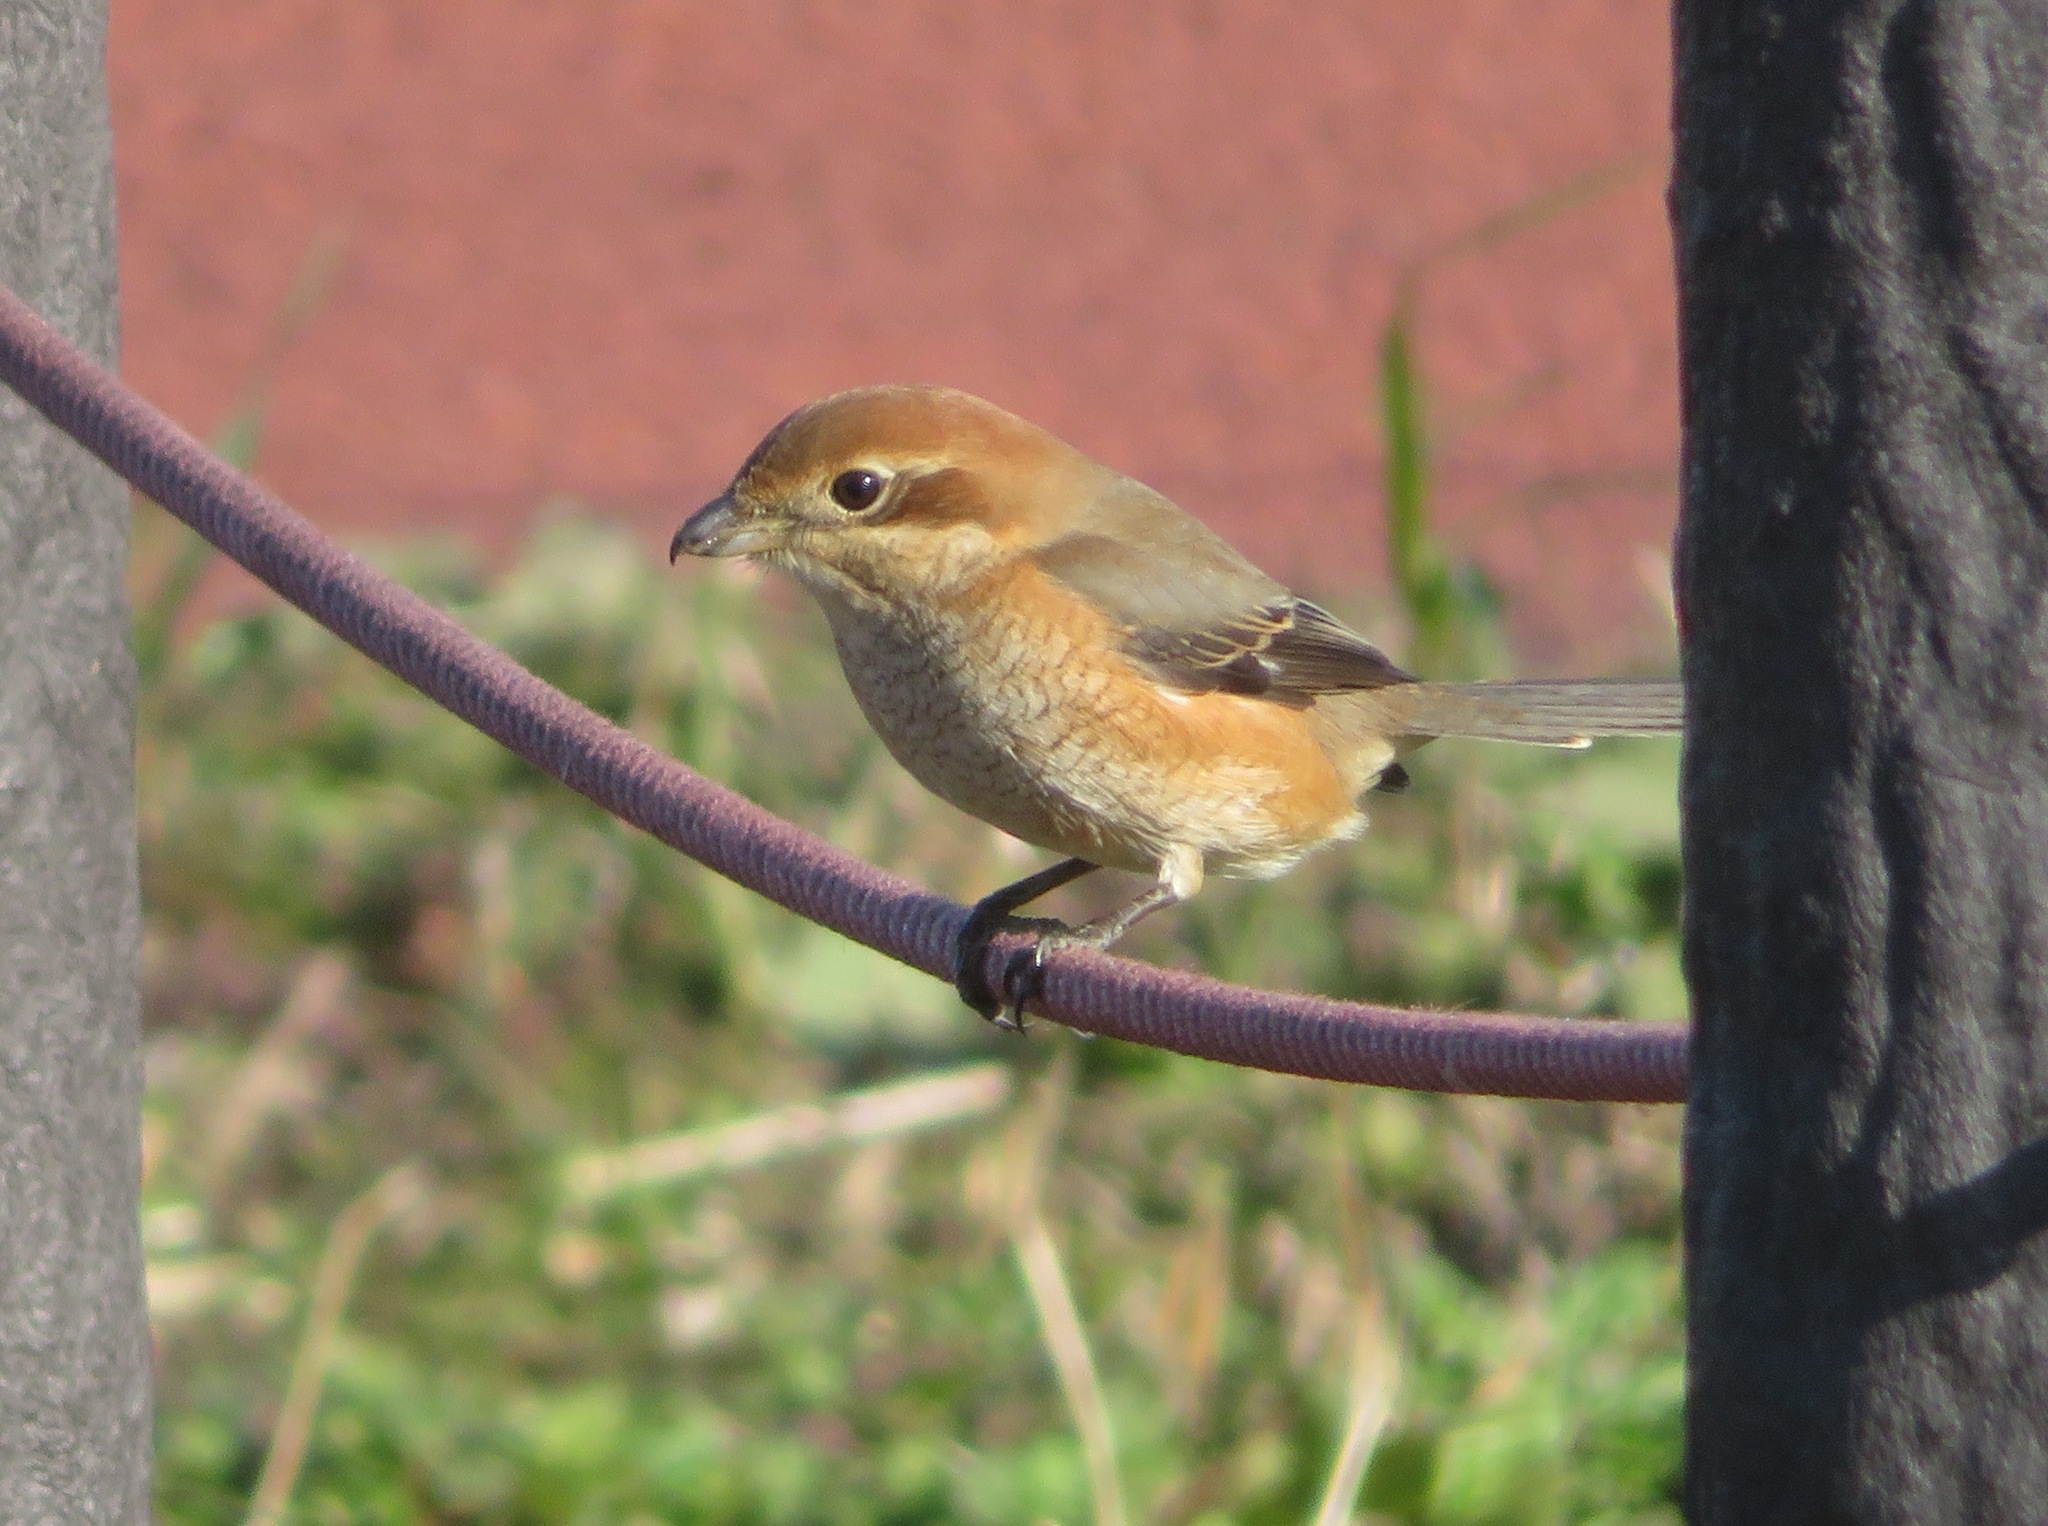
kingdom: Animalia
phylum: Chordata
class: Aves
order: Passeriformes
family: Laniidae
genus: Lanius
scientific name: Lanius bucephalus
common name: Bull-headed shrike
